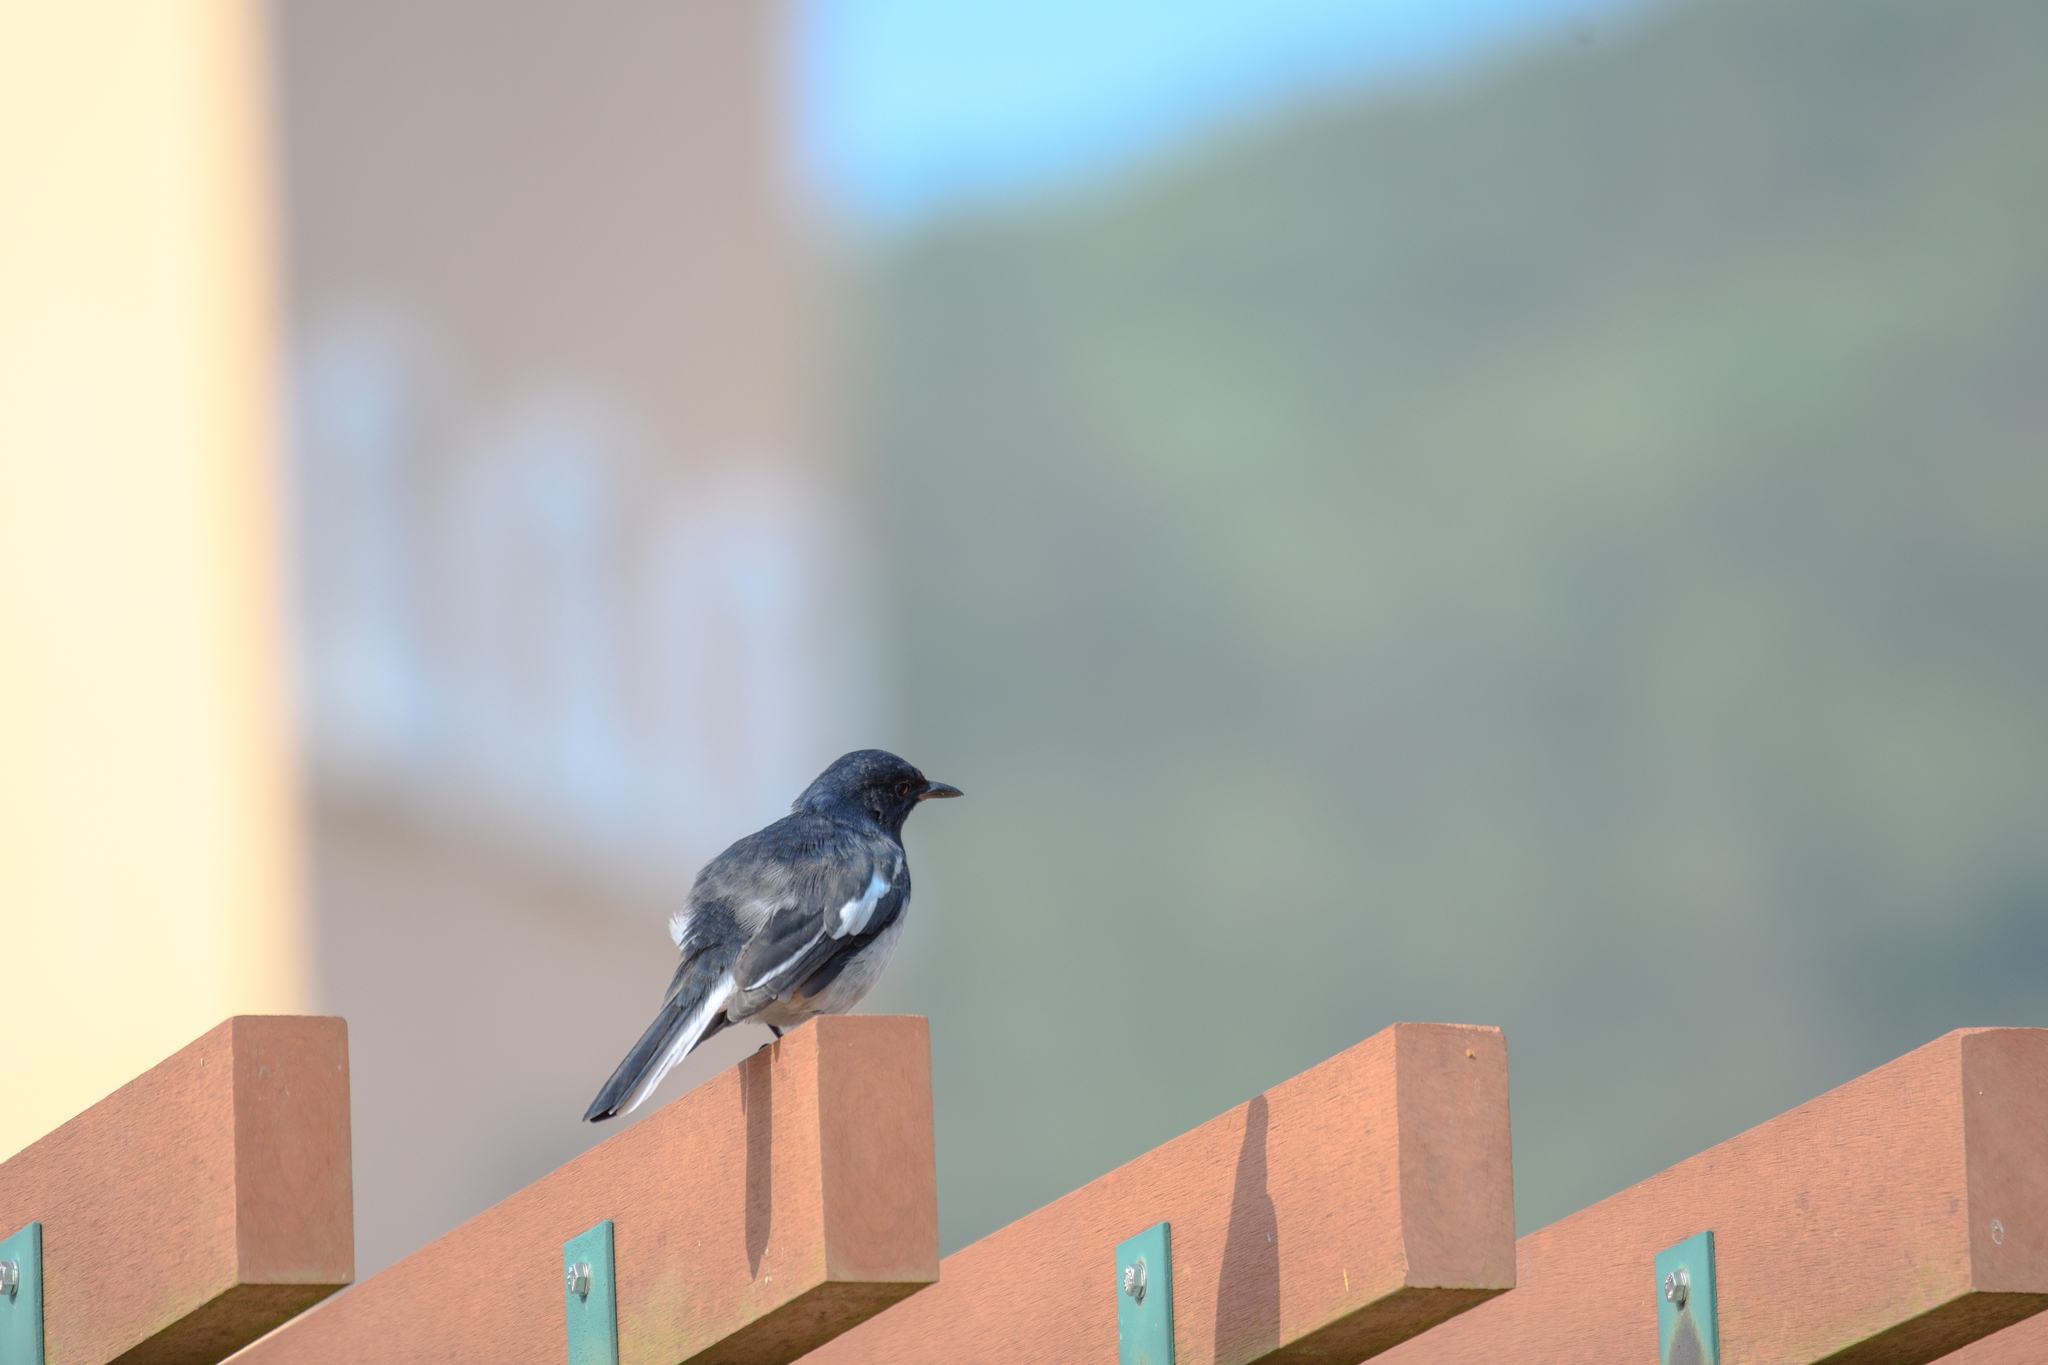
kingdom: Animalia
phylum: Chordata
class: Aves
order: Passeriformes
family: Muscicapidae
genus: Copsychus
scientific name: Copsychus saularis
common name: Oriental magpie-robin
